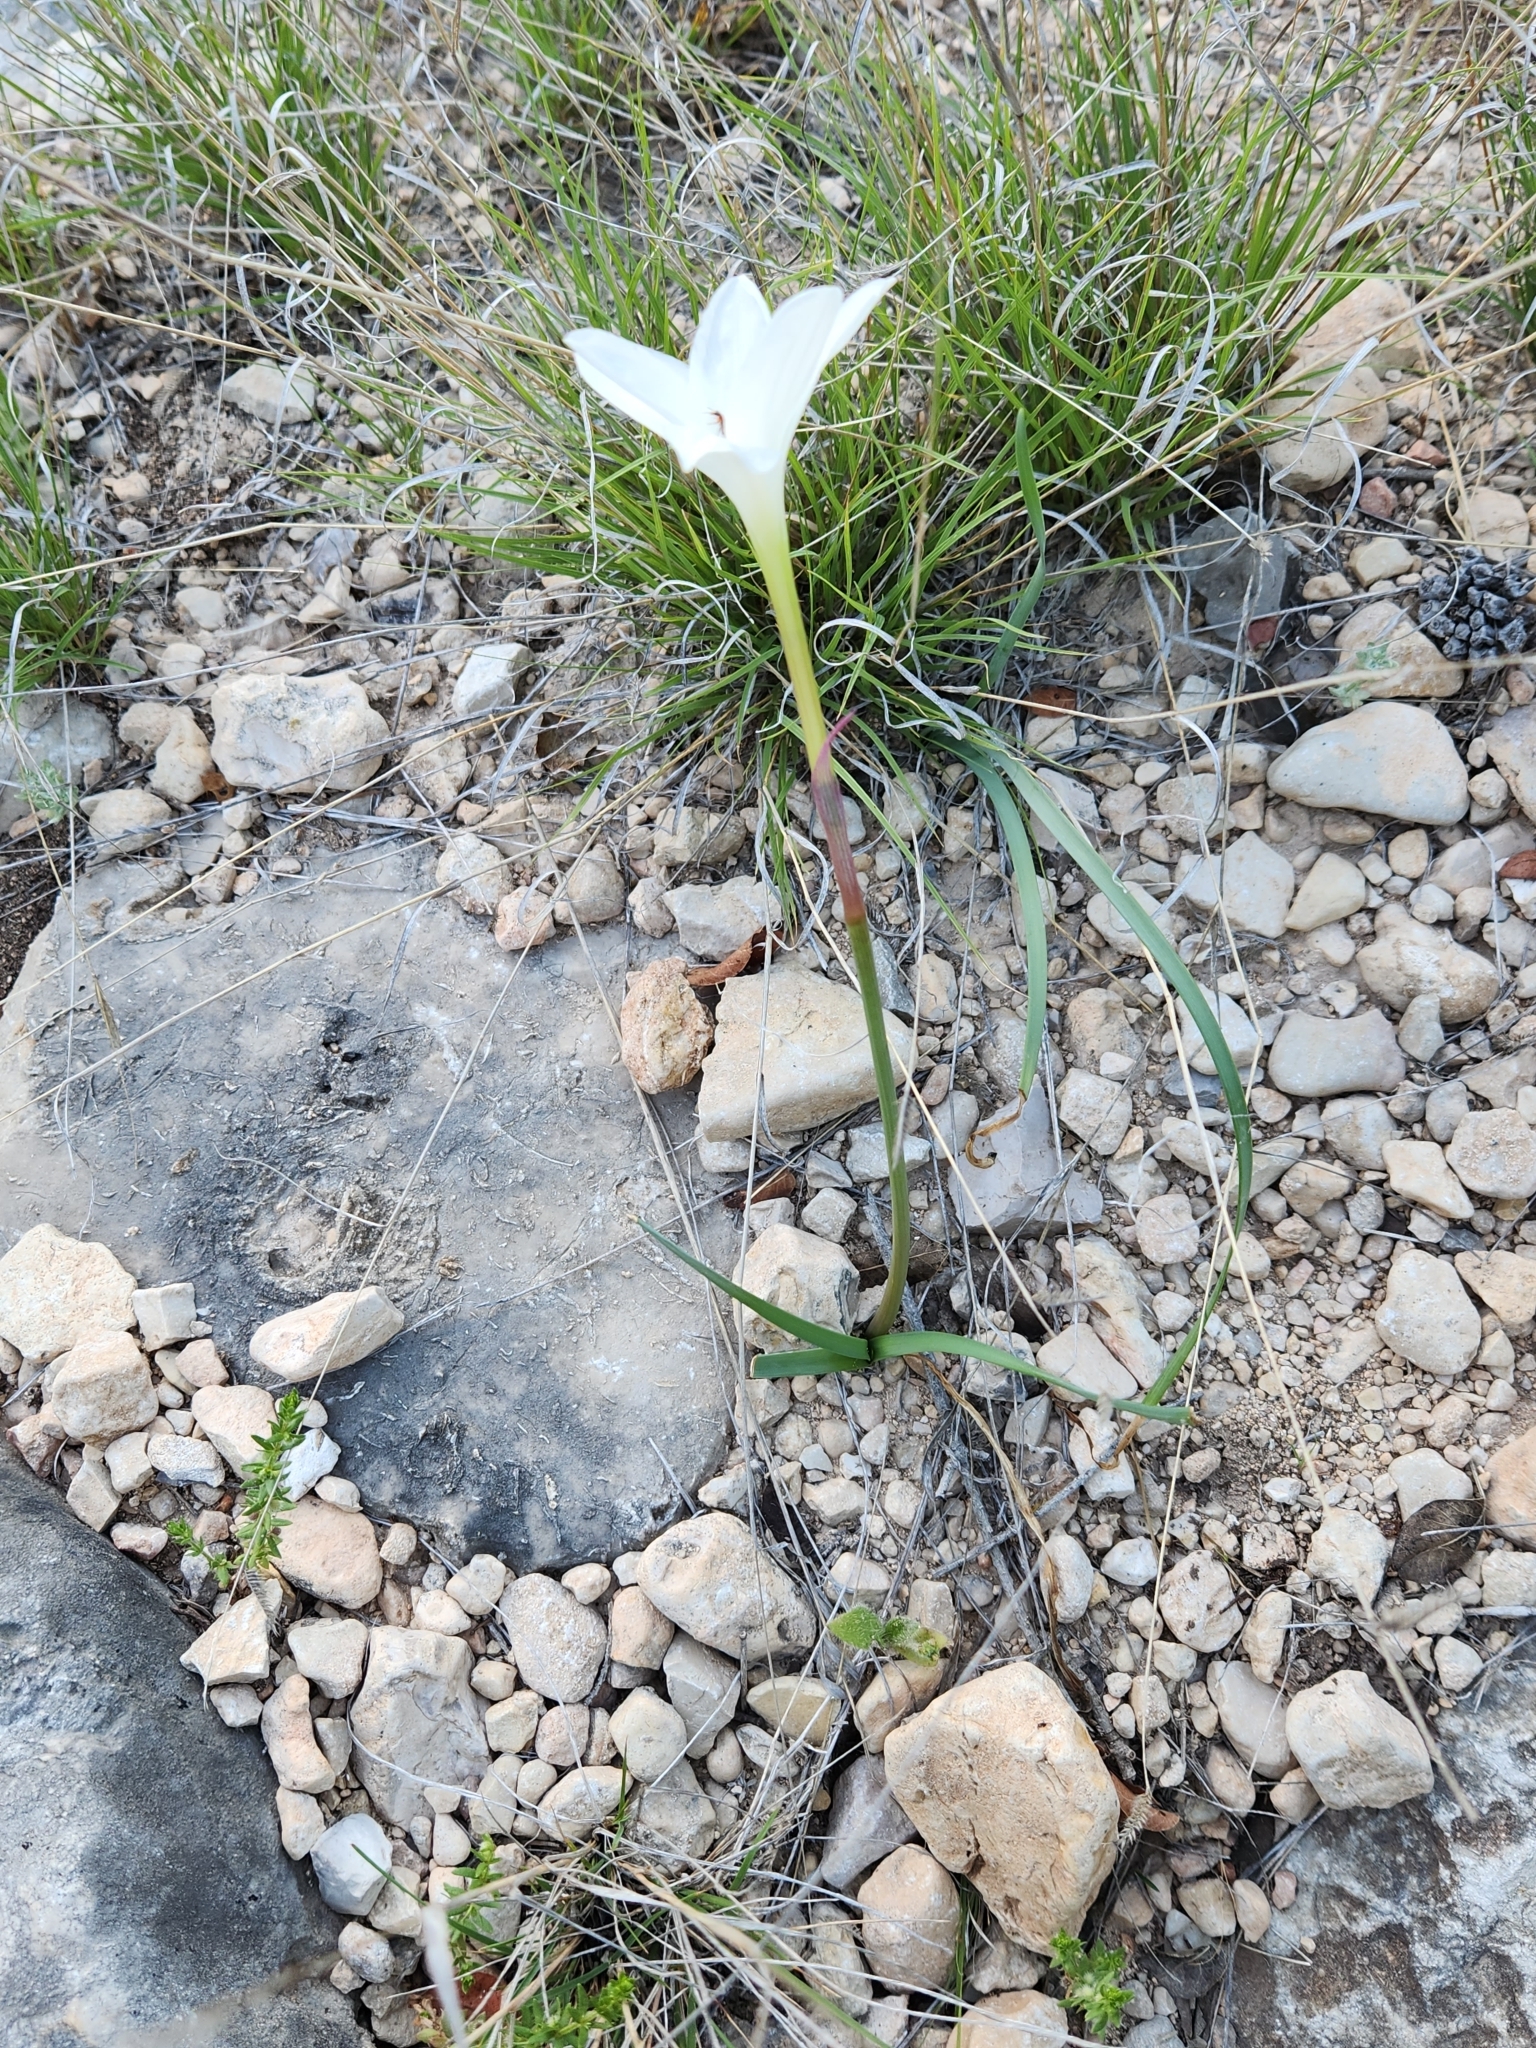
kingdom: Plantae
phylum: Tracheophyta
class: Liliopsida
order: Asparagales
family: Amaryllidaceae
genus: Zephyranthes
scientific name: Zephyranthes drummondii
